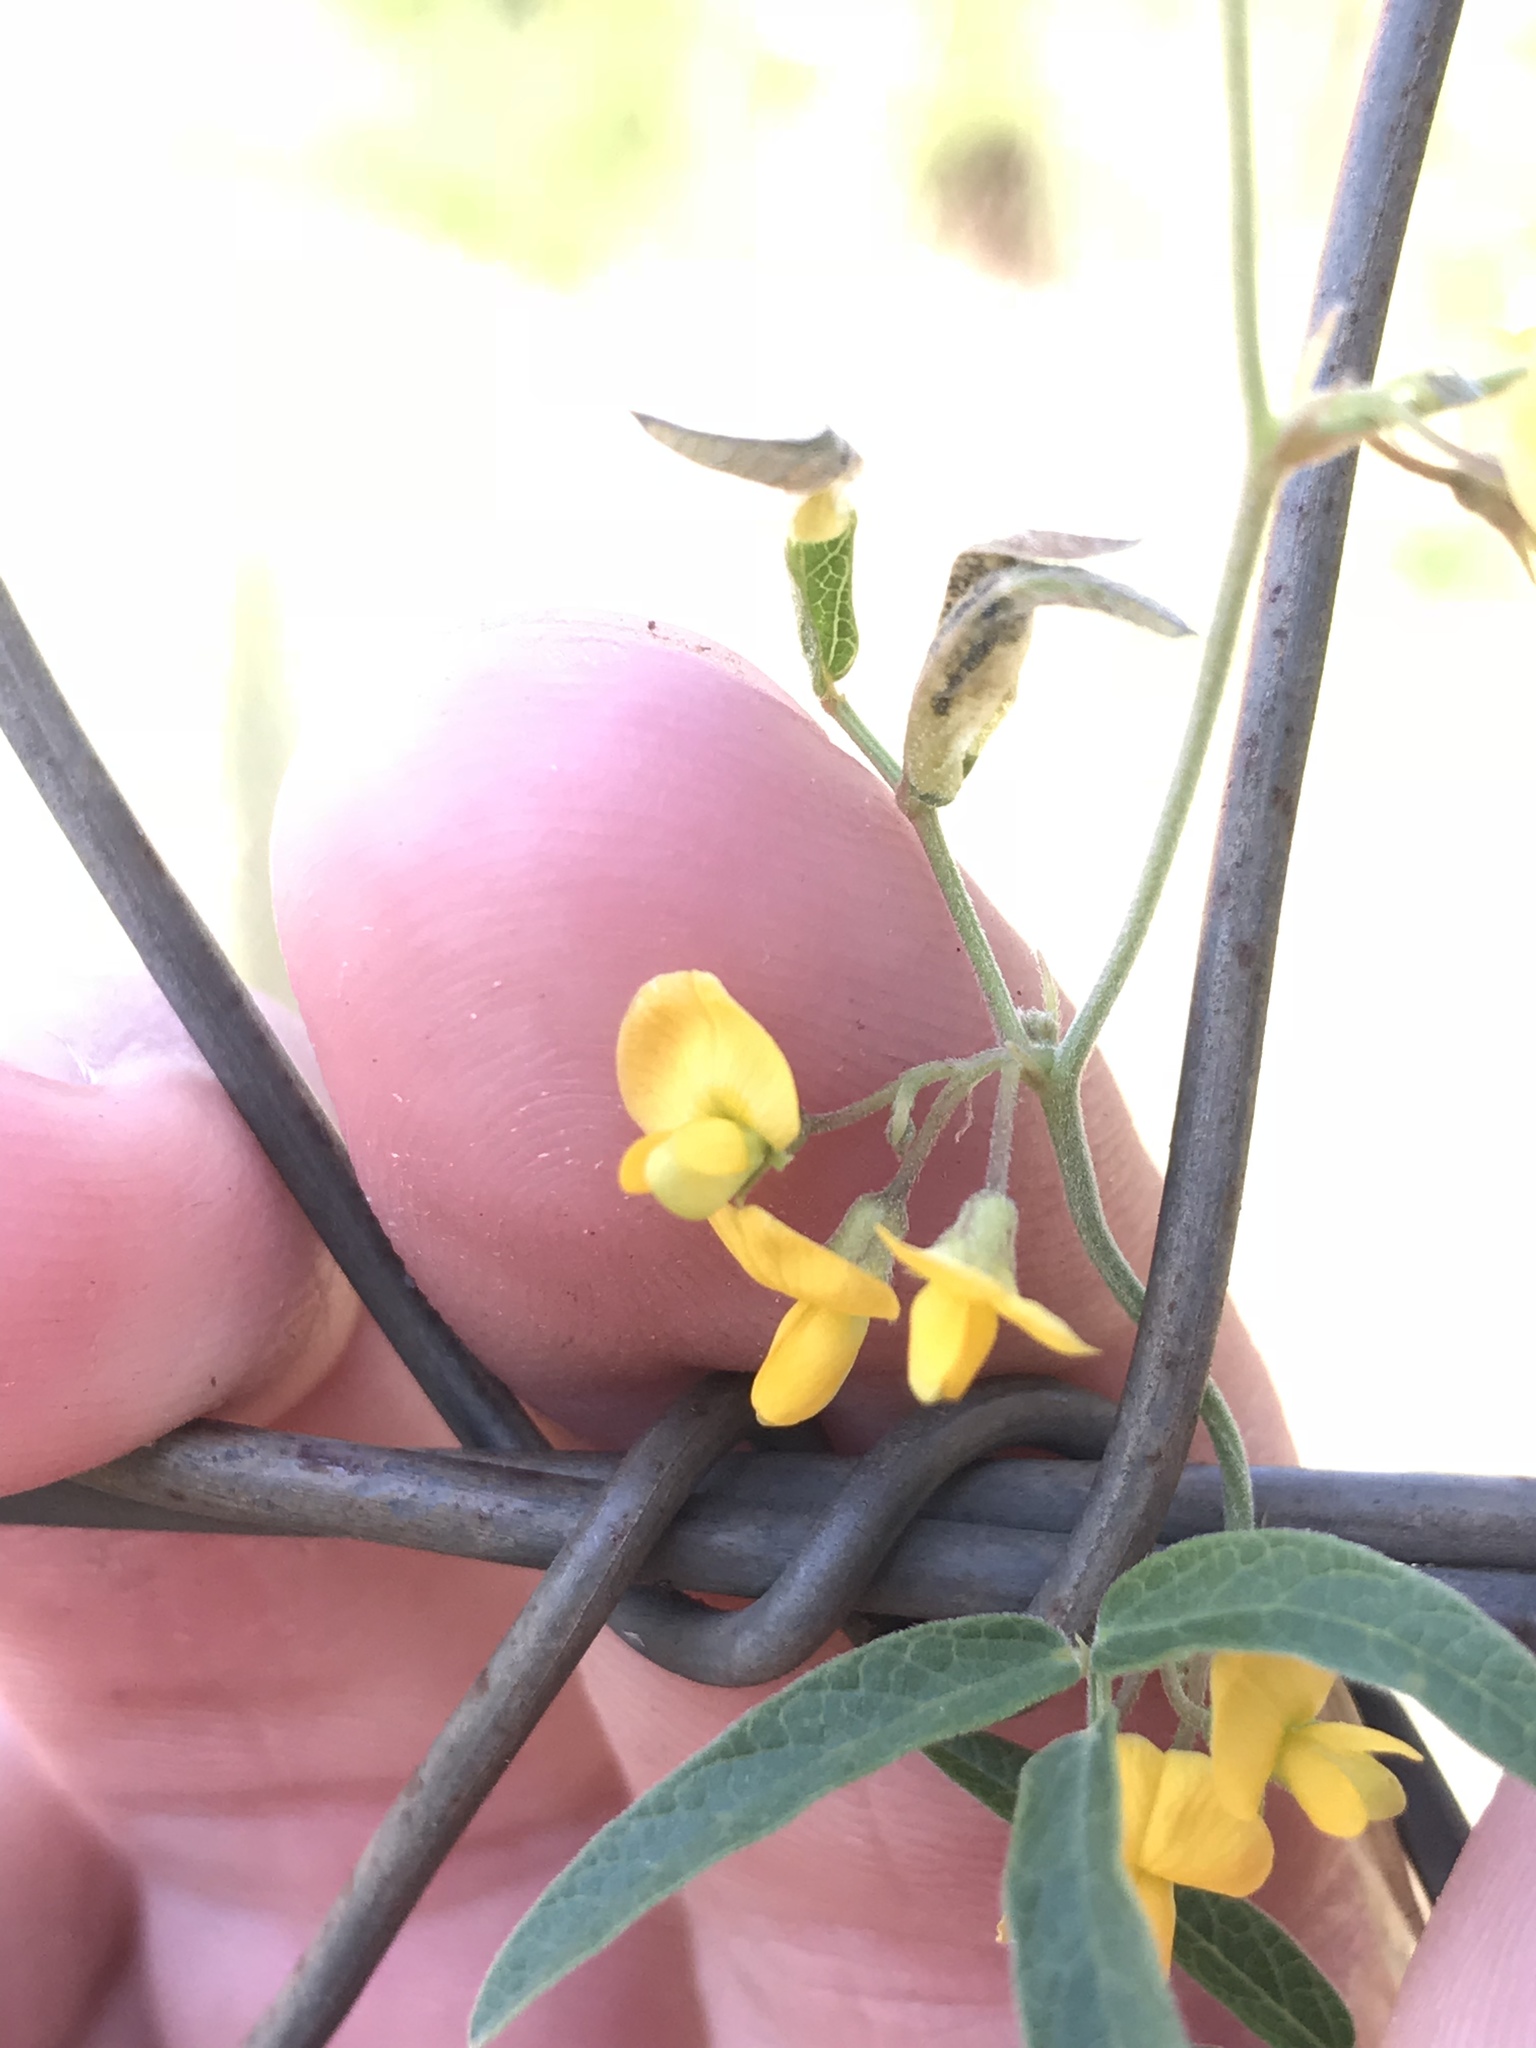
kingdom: Plantae
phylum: Tracheophyta
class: Magnoliopsida
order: Fabales
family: Fabaceae
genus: Rhynchosia
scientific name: Rhynchosia senna
